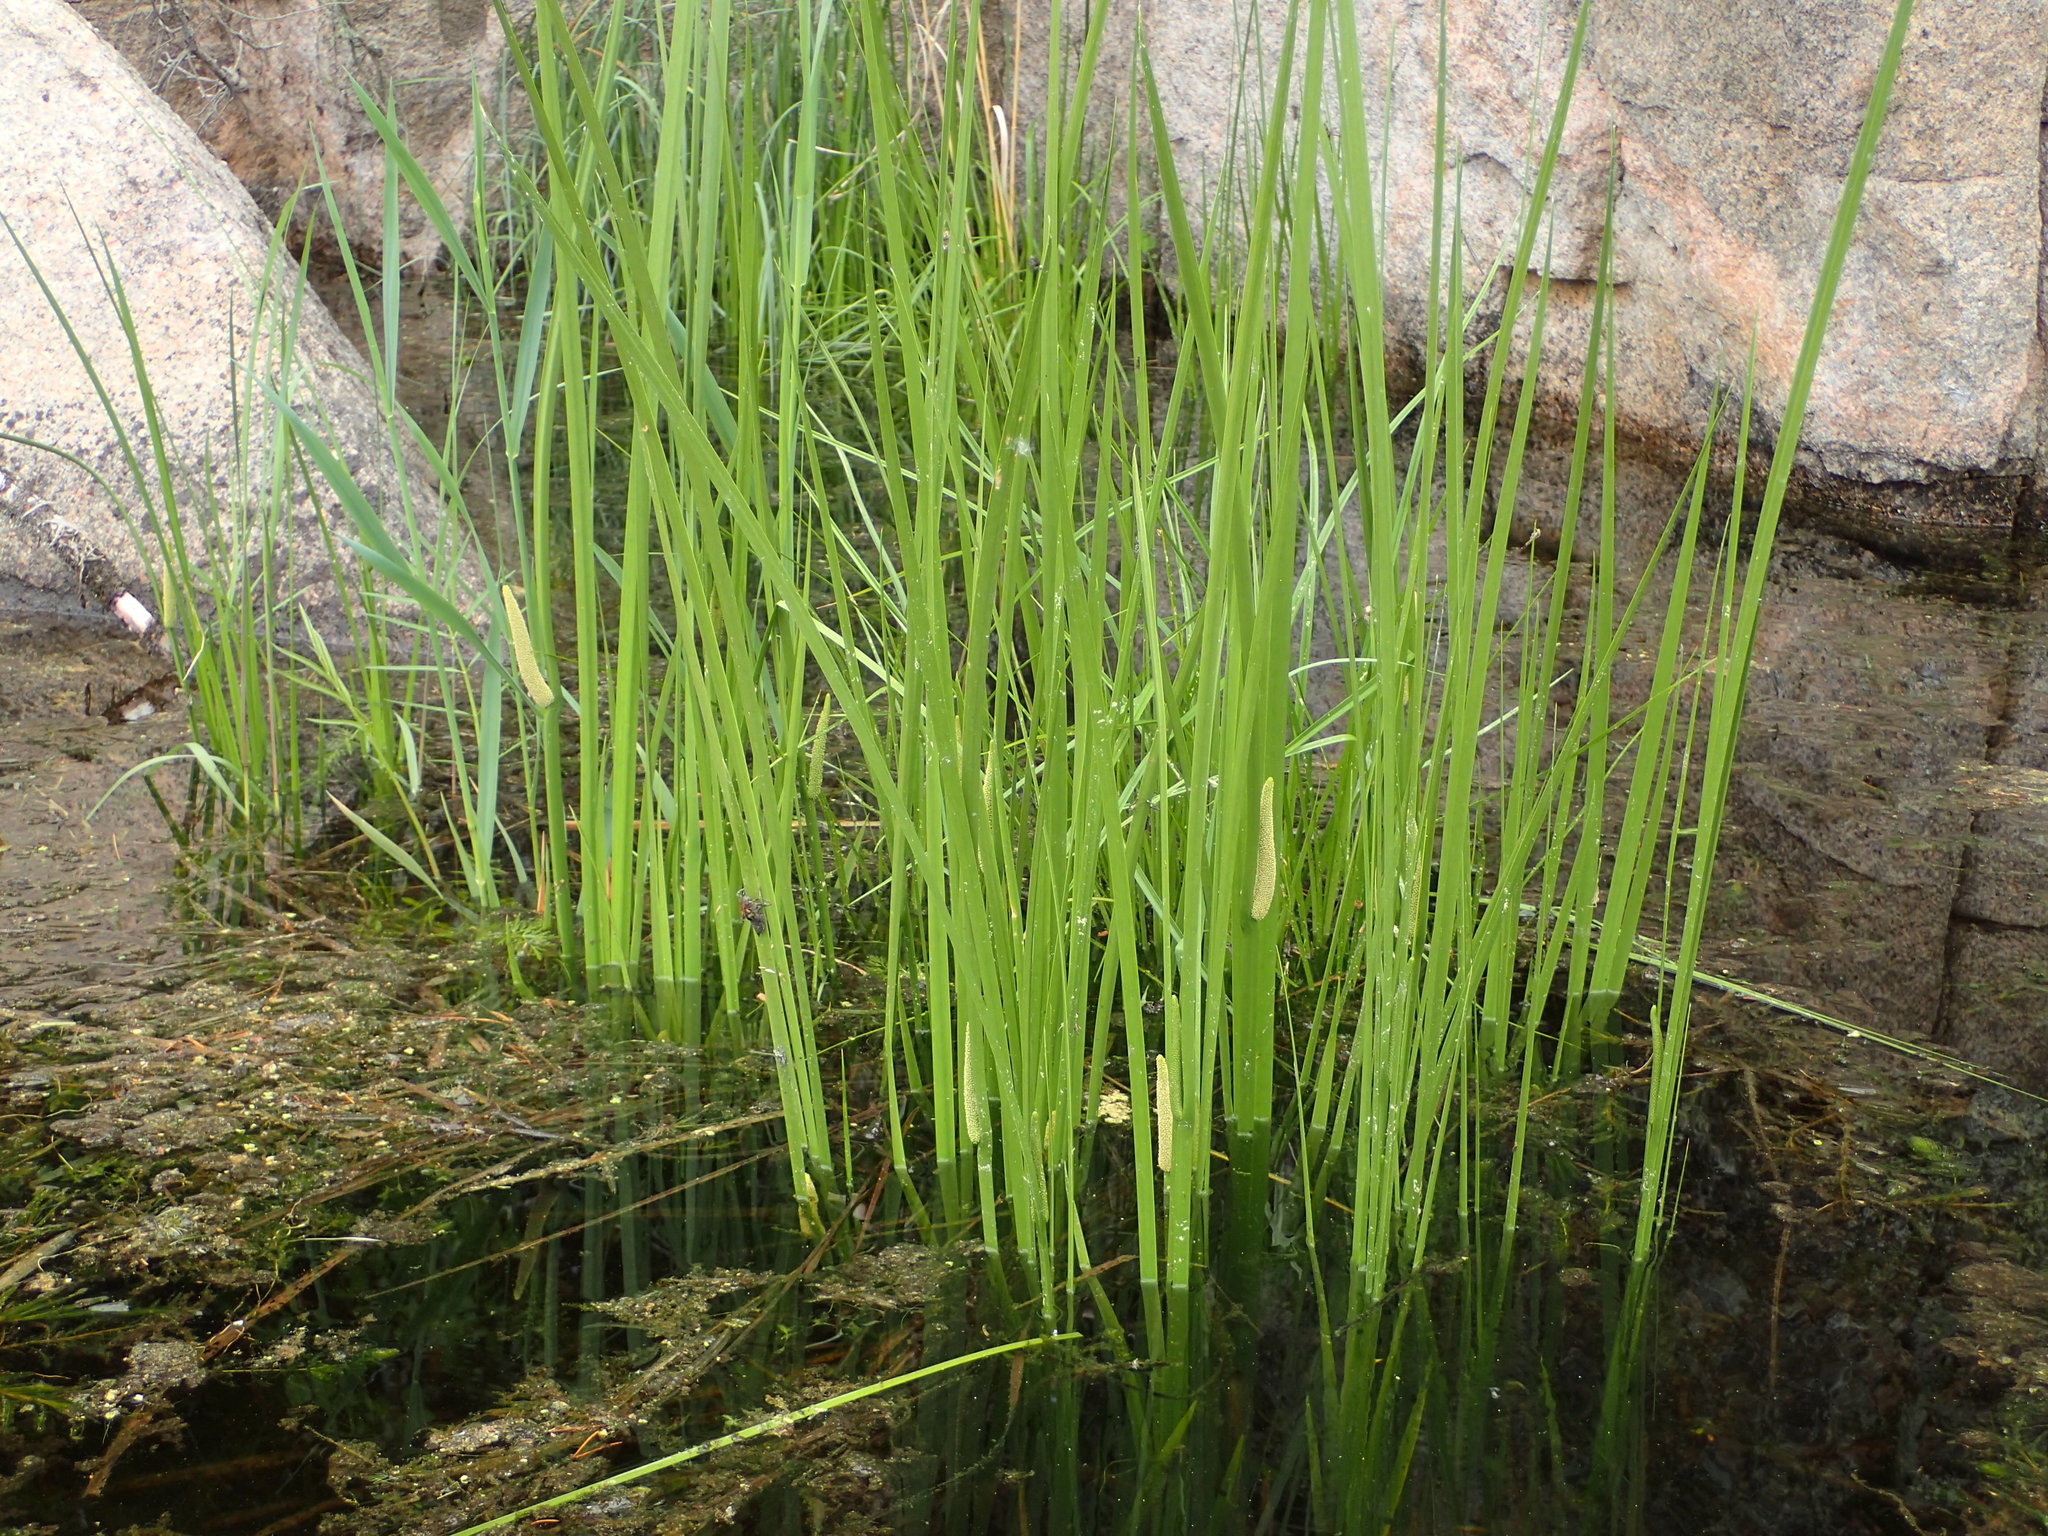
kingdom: Plantae
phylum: Tracheophyta
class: Liliopsida
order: Acorales
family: Acoraceae
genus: Acorus
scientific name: Acorus calamus
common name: Sweet-flag
